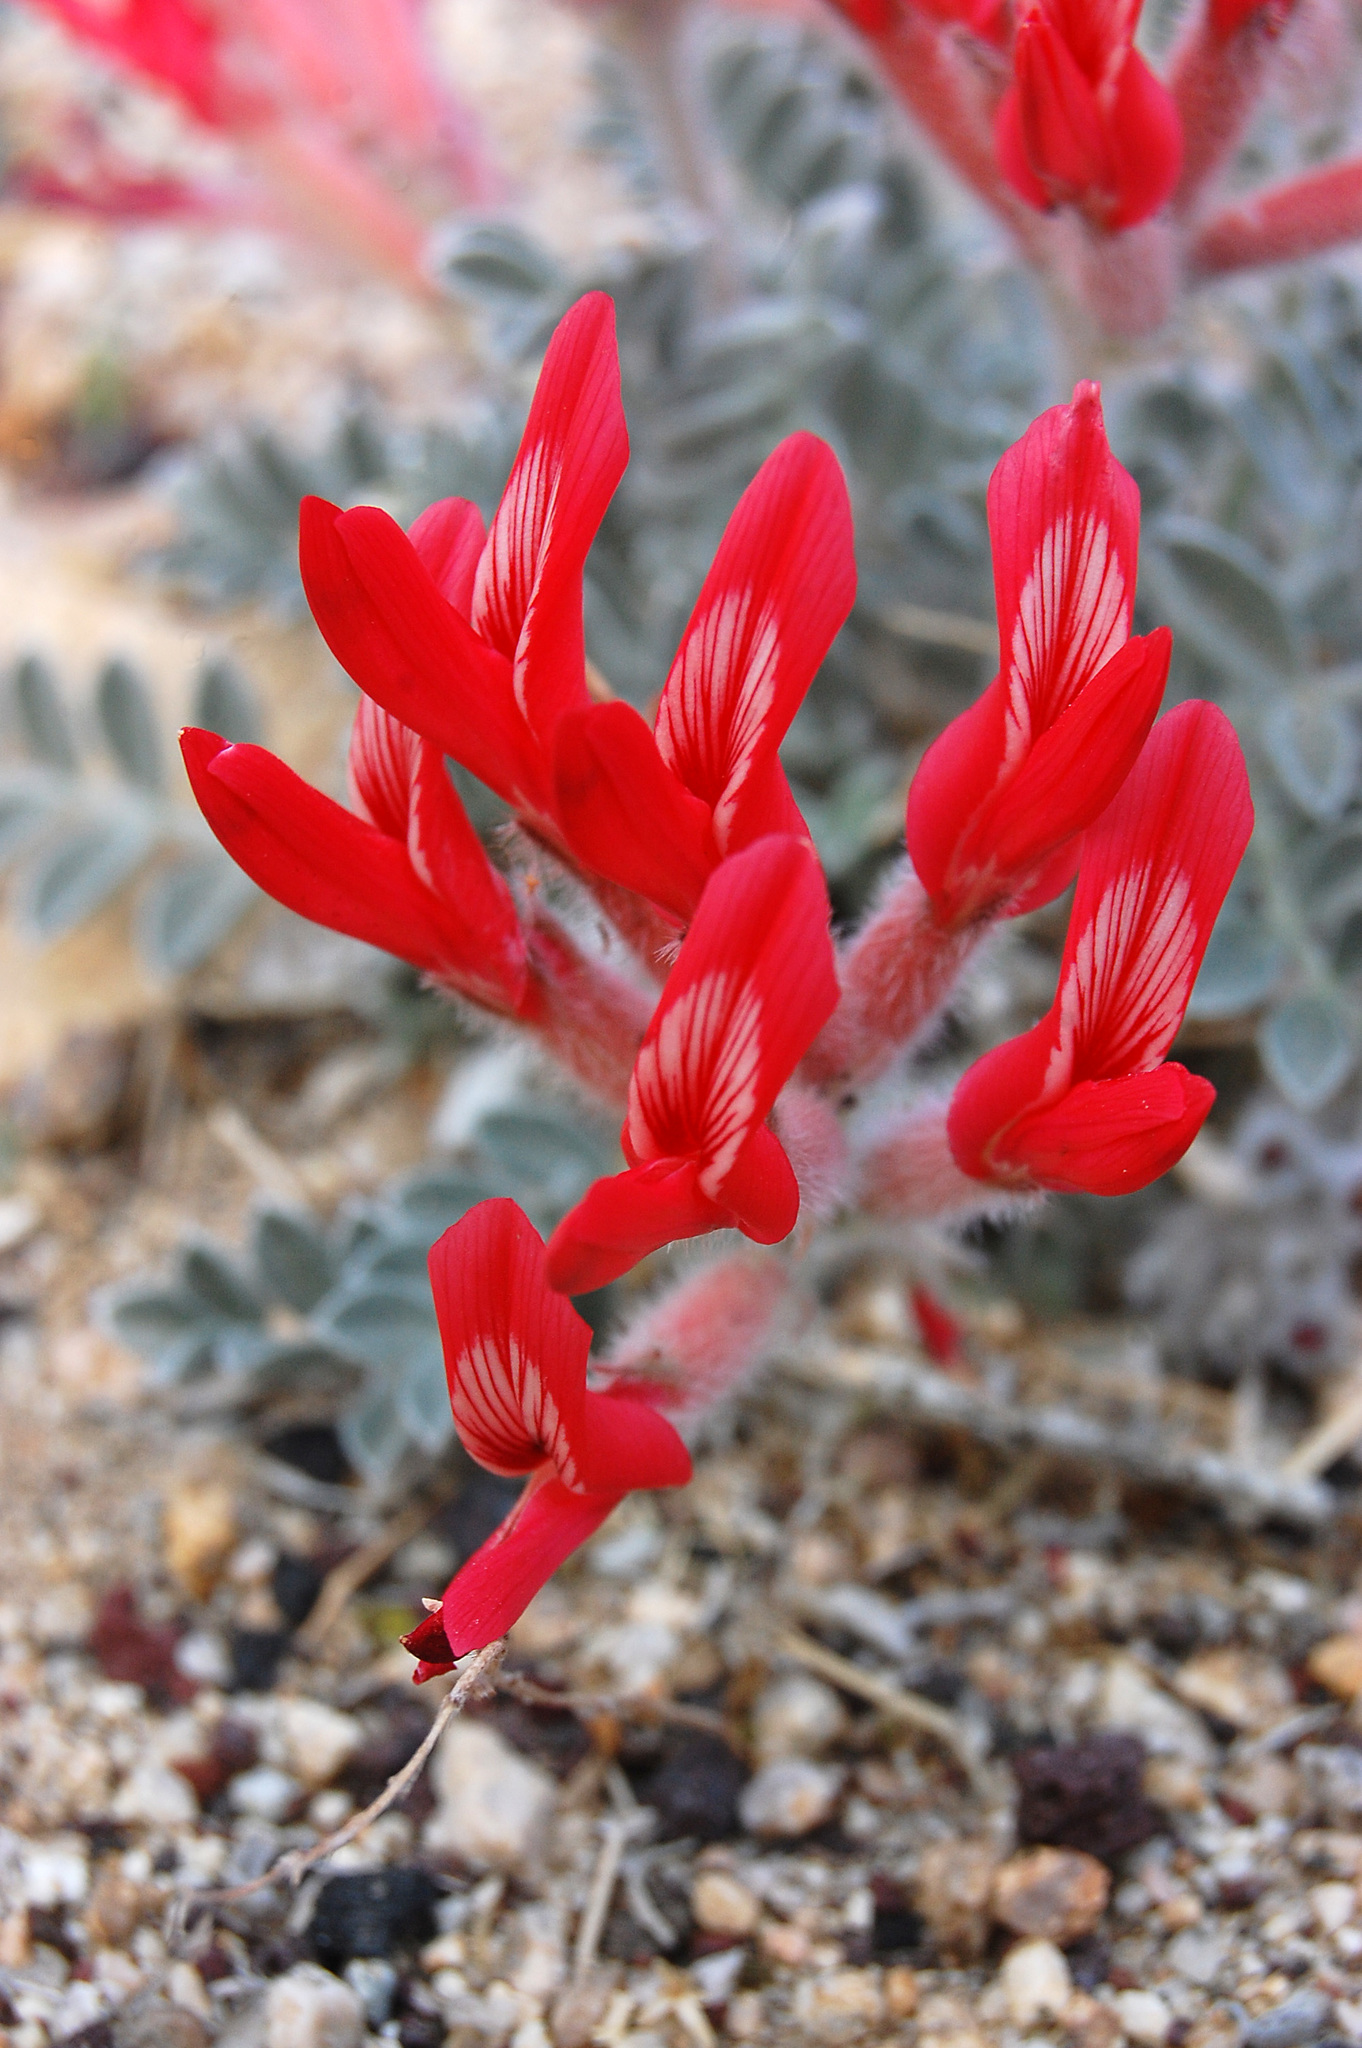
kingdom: Plantae
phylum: Tracheophyta
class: Magnoliopsida
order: Fabales
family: Fabaceae
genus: Astragalus
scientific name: Astragalus coccineus
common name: Scarlet milk-vetch
